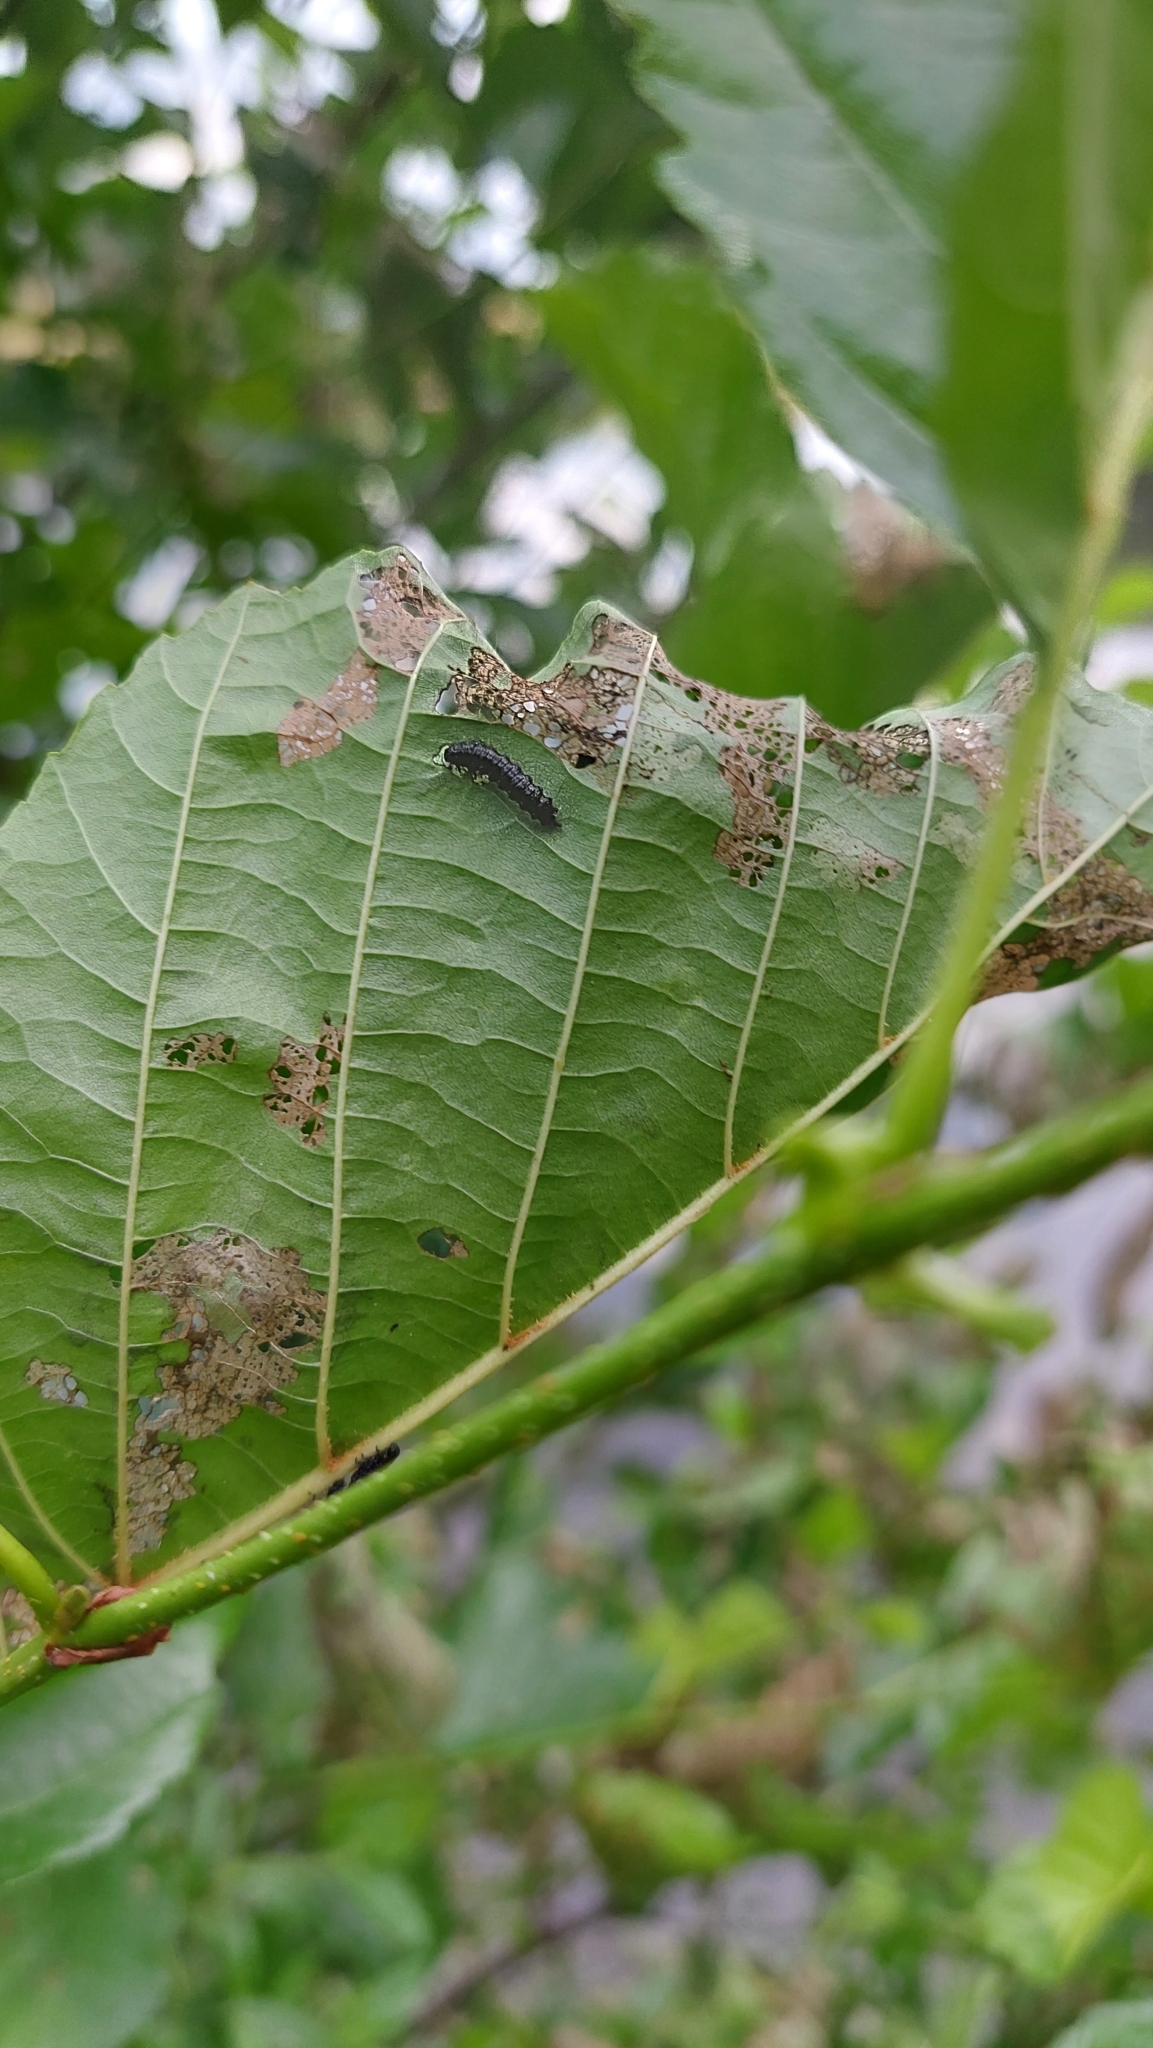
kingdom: Animalia
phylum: Arthropoda
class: Insecta
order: Coleoptera
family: Chrysomelidae
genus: Agelastica
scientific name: Agelastica alni
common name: Alder leaf beetle
